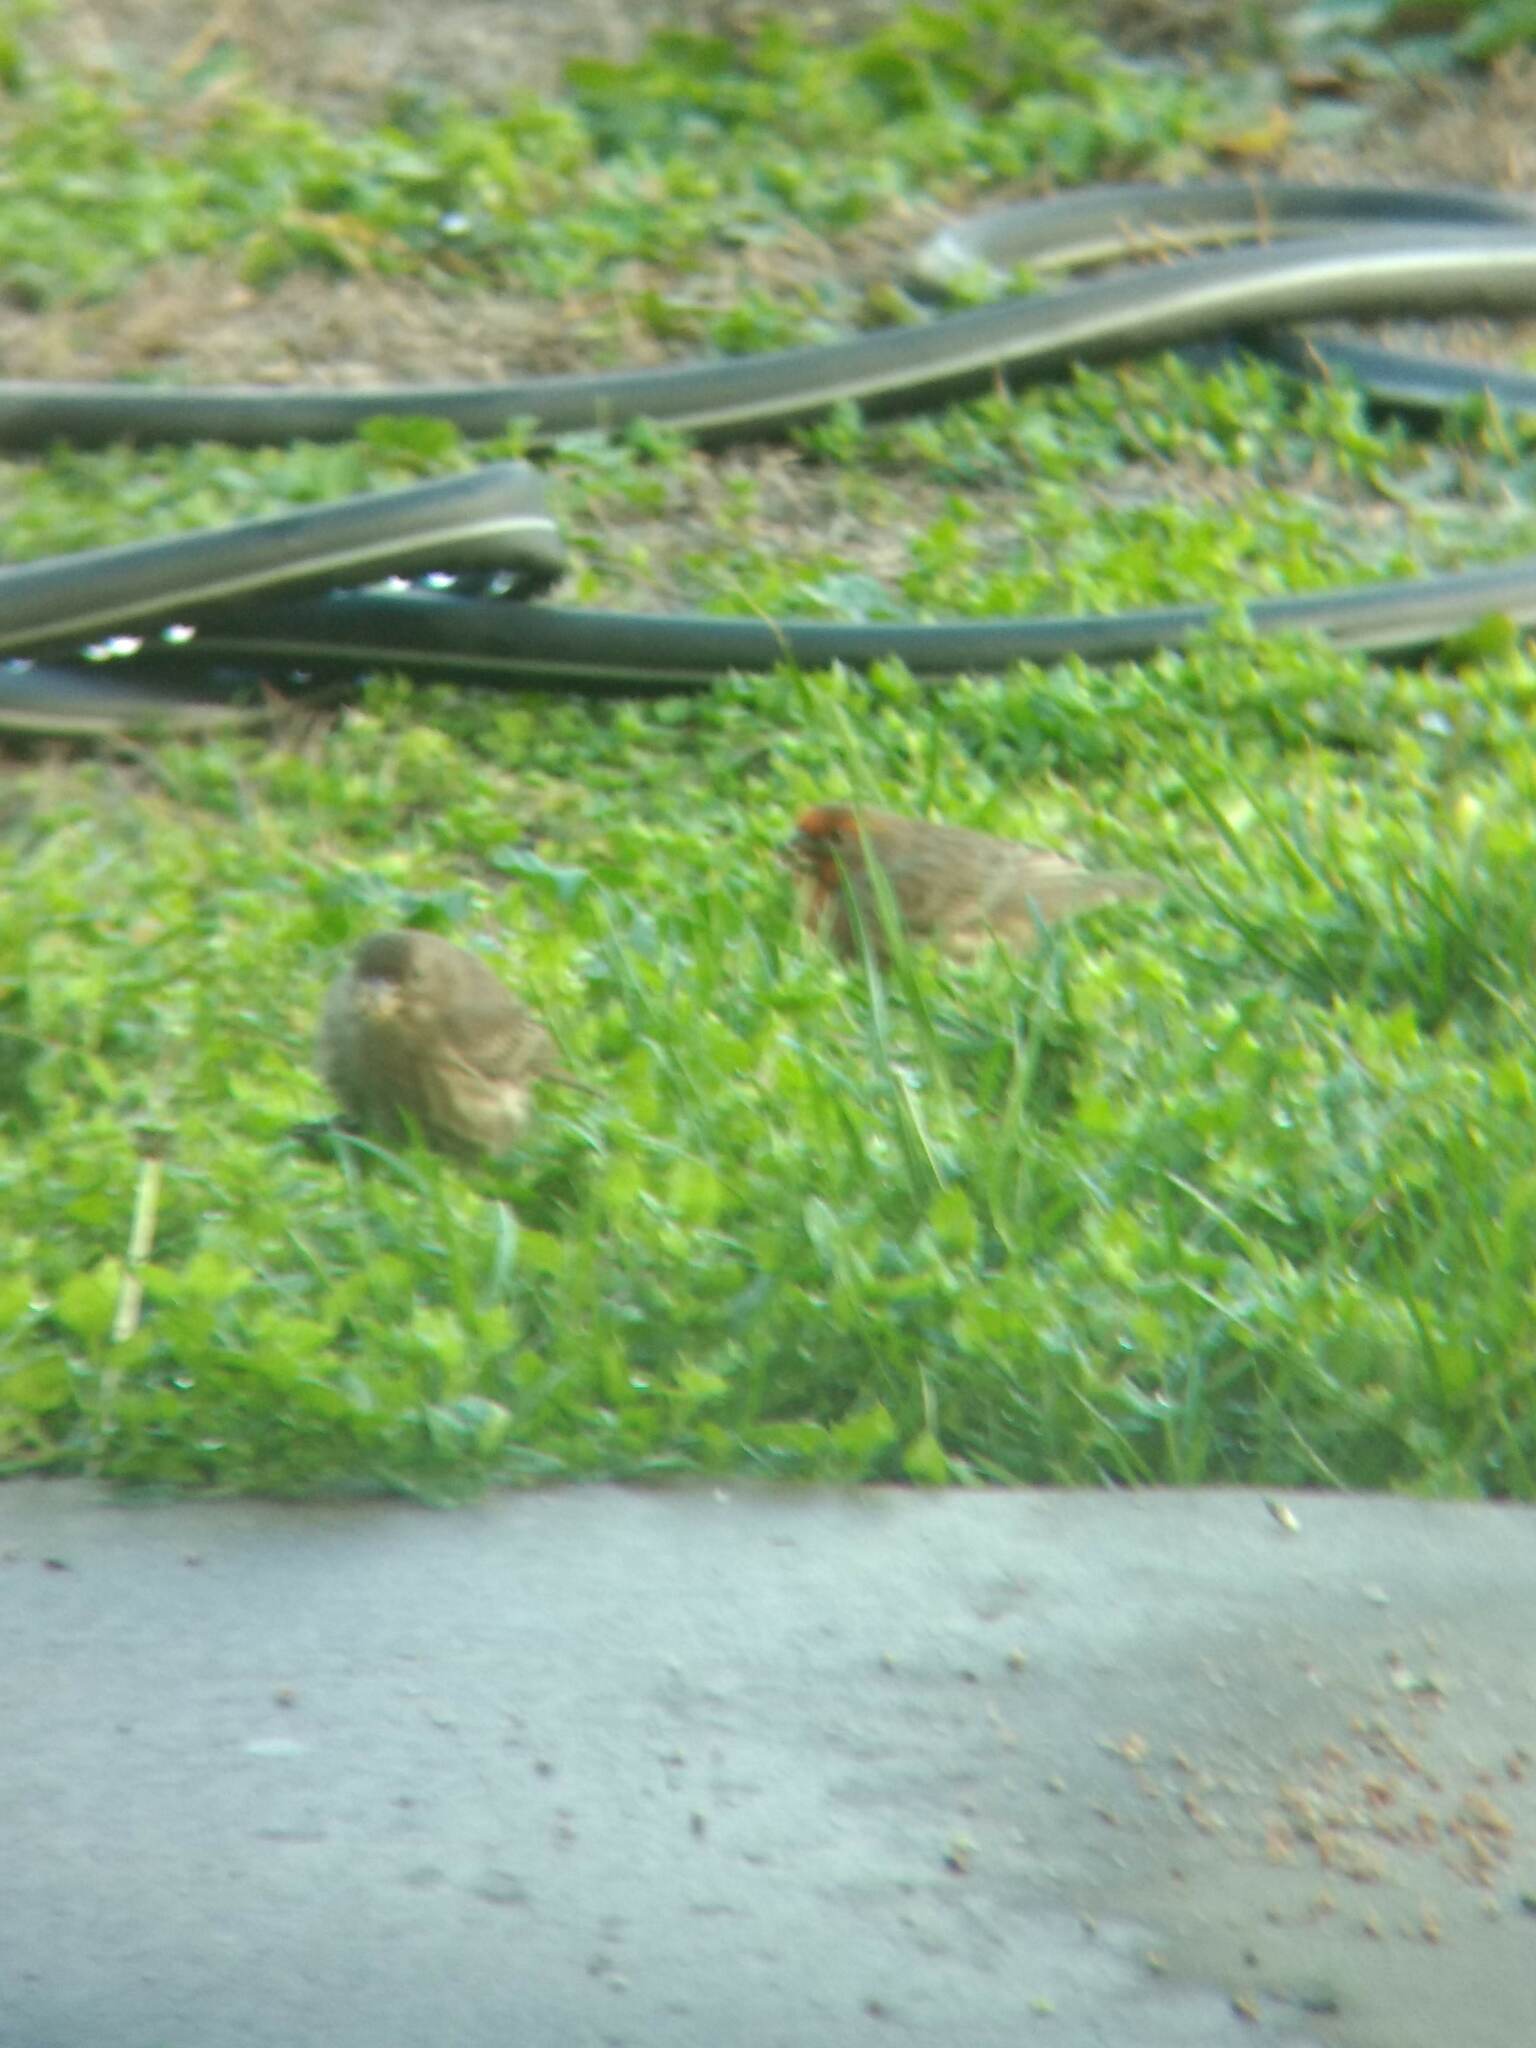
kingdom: Animalia
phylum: Chordata
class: Aves
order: Passeriformes
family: Fringillidae
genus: Haemorhous
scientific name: Haemorhous mexicanus
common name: House finch
